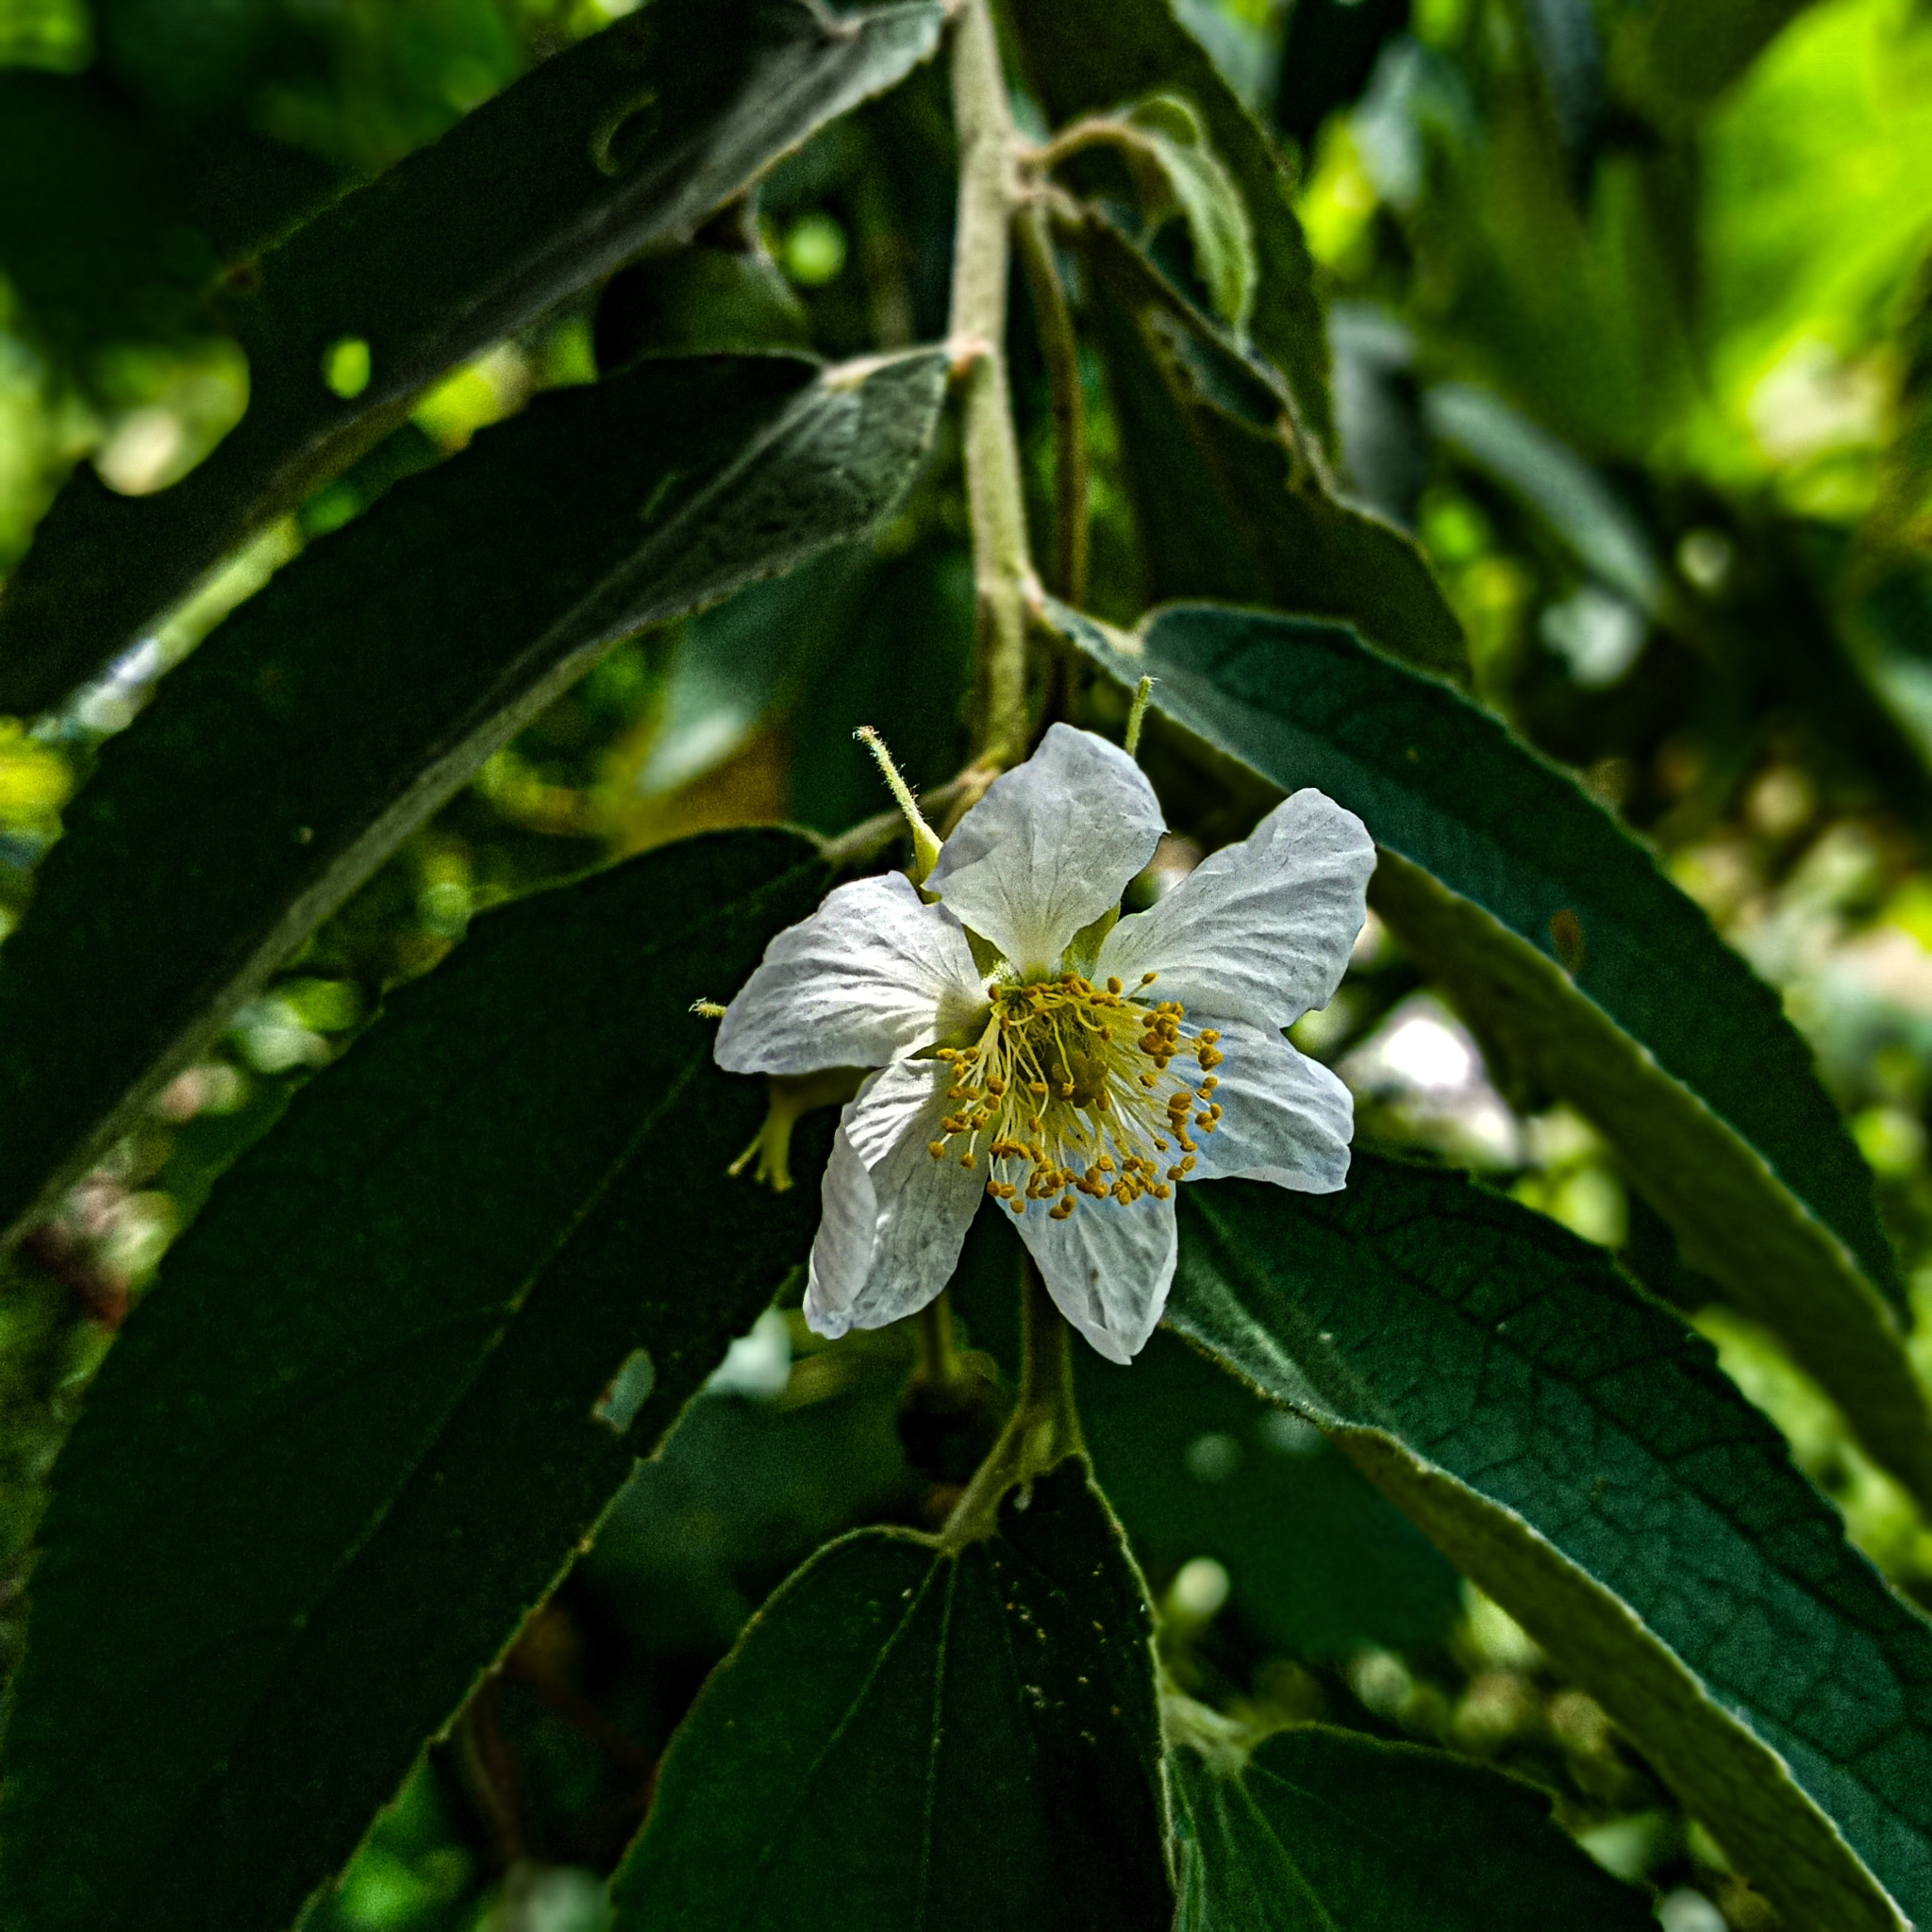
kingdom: Plantae
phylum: Tracheophyta
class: Magnoliopsida
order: Malvales
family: Muntingiaceae
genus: Muntingia
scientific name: Muntingia calabura
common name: Strawberrytree
